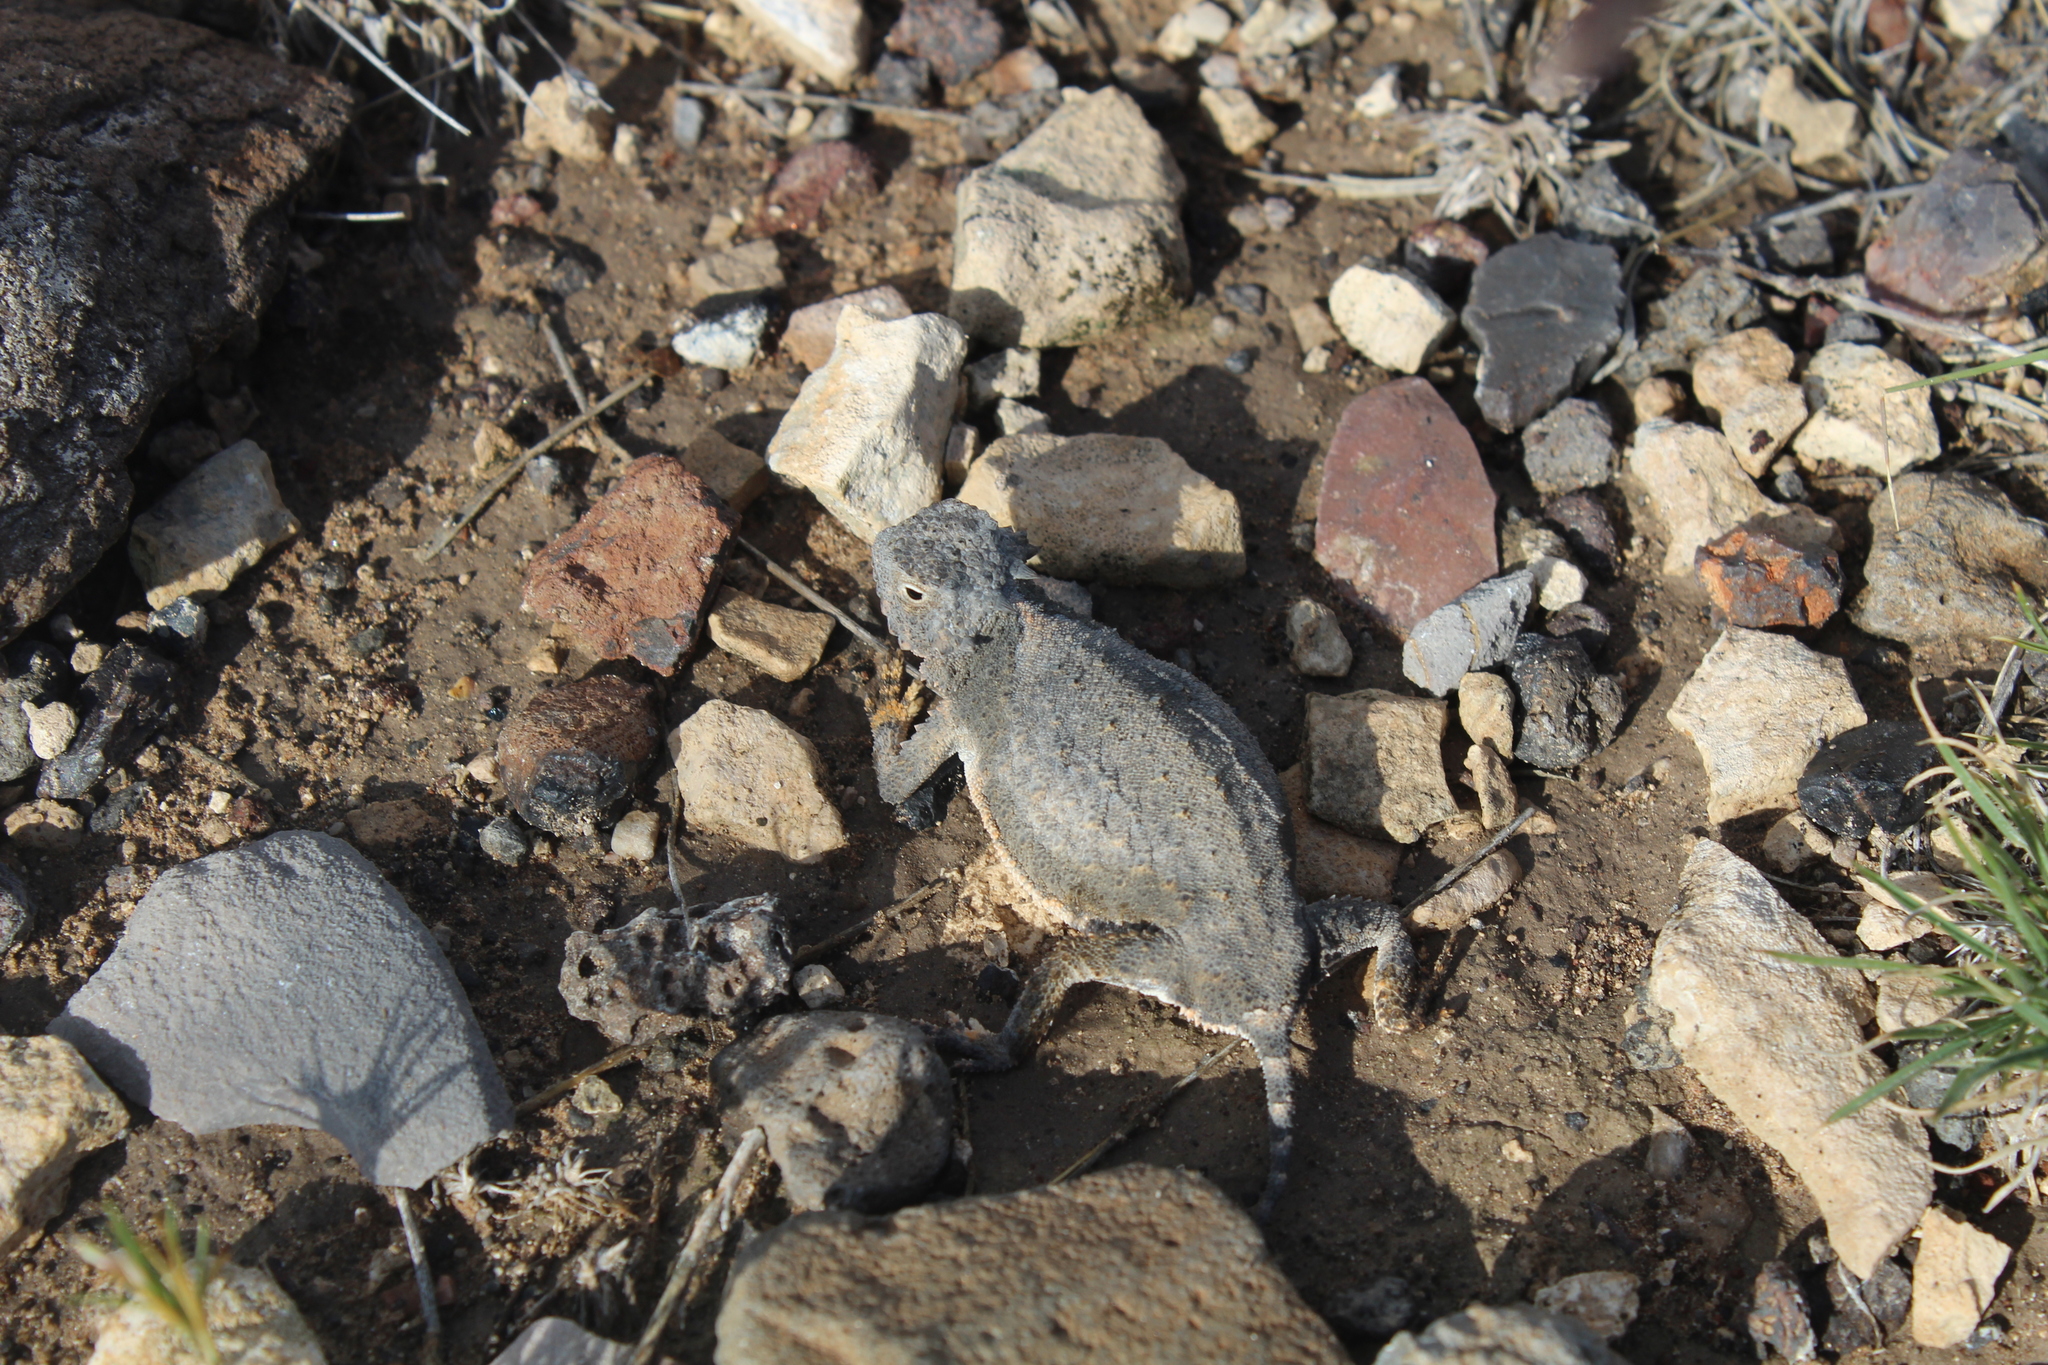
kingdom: Animalia
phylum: Chordata
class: Squamata
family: Phrynosomatidae
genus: Phrynosoma
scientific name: Phrynosoma modestum
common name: Roundtail horned lizard
